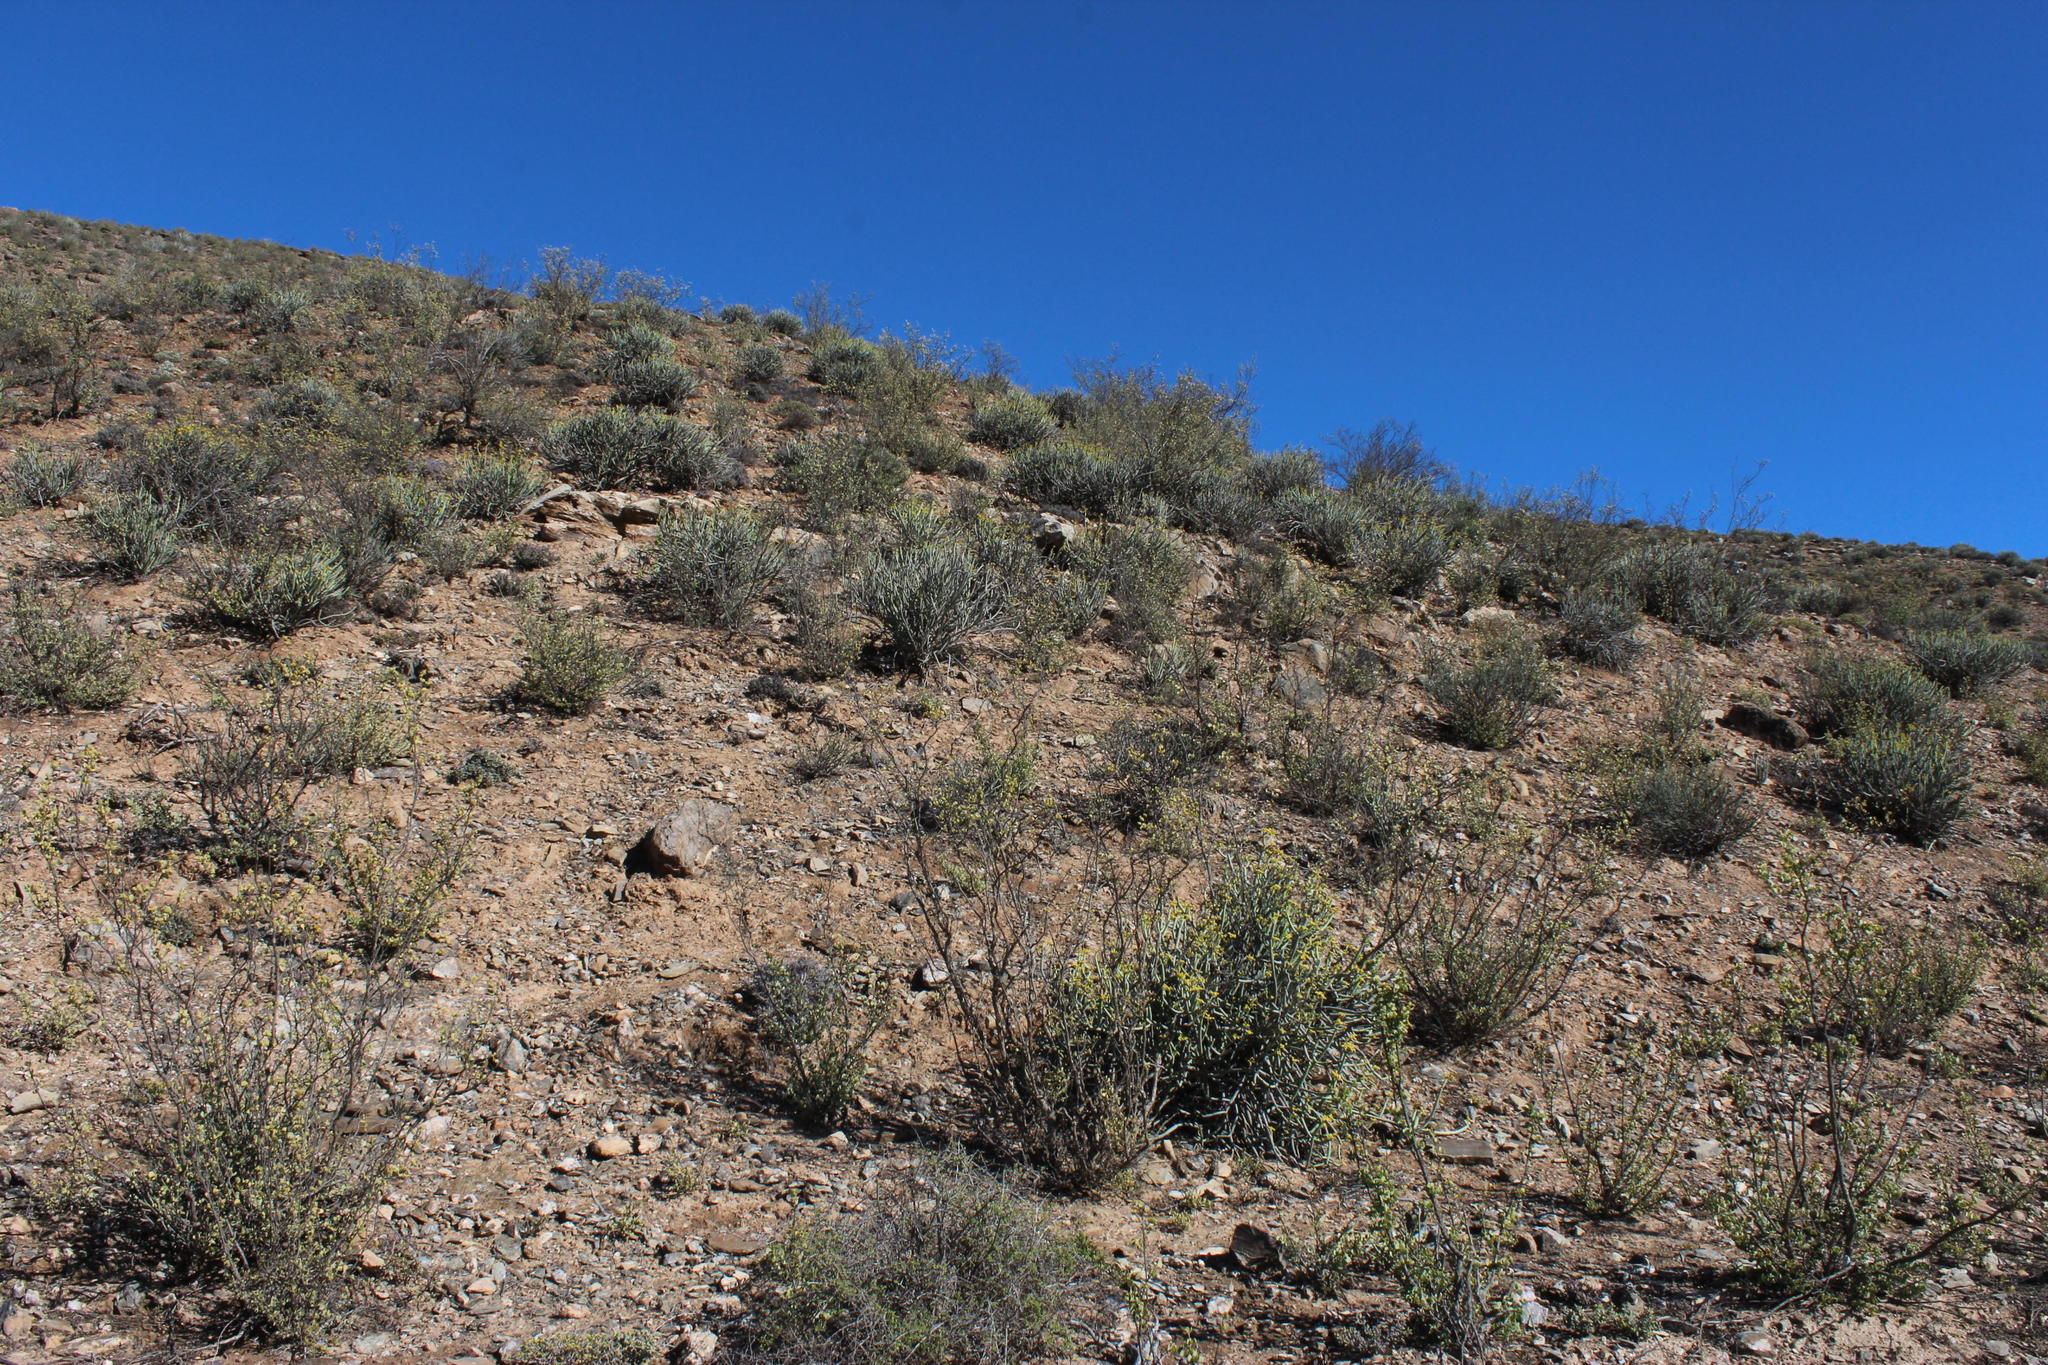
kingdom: Plantae
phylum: Tracheophyta
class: Magnoliopsida
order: Zygophyllales
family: Zygophyllaceae
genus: Tetraena
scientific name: Tetraena prismatocarpa
